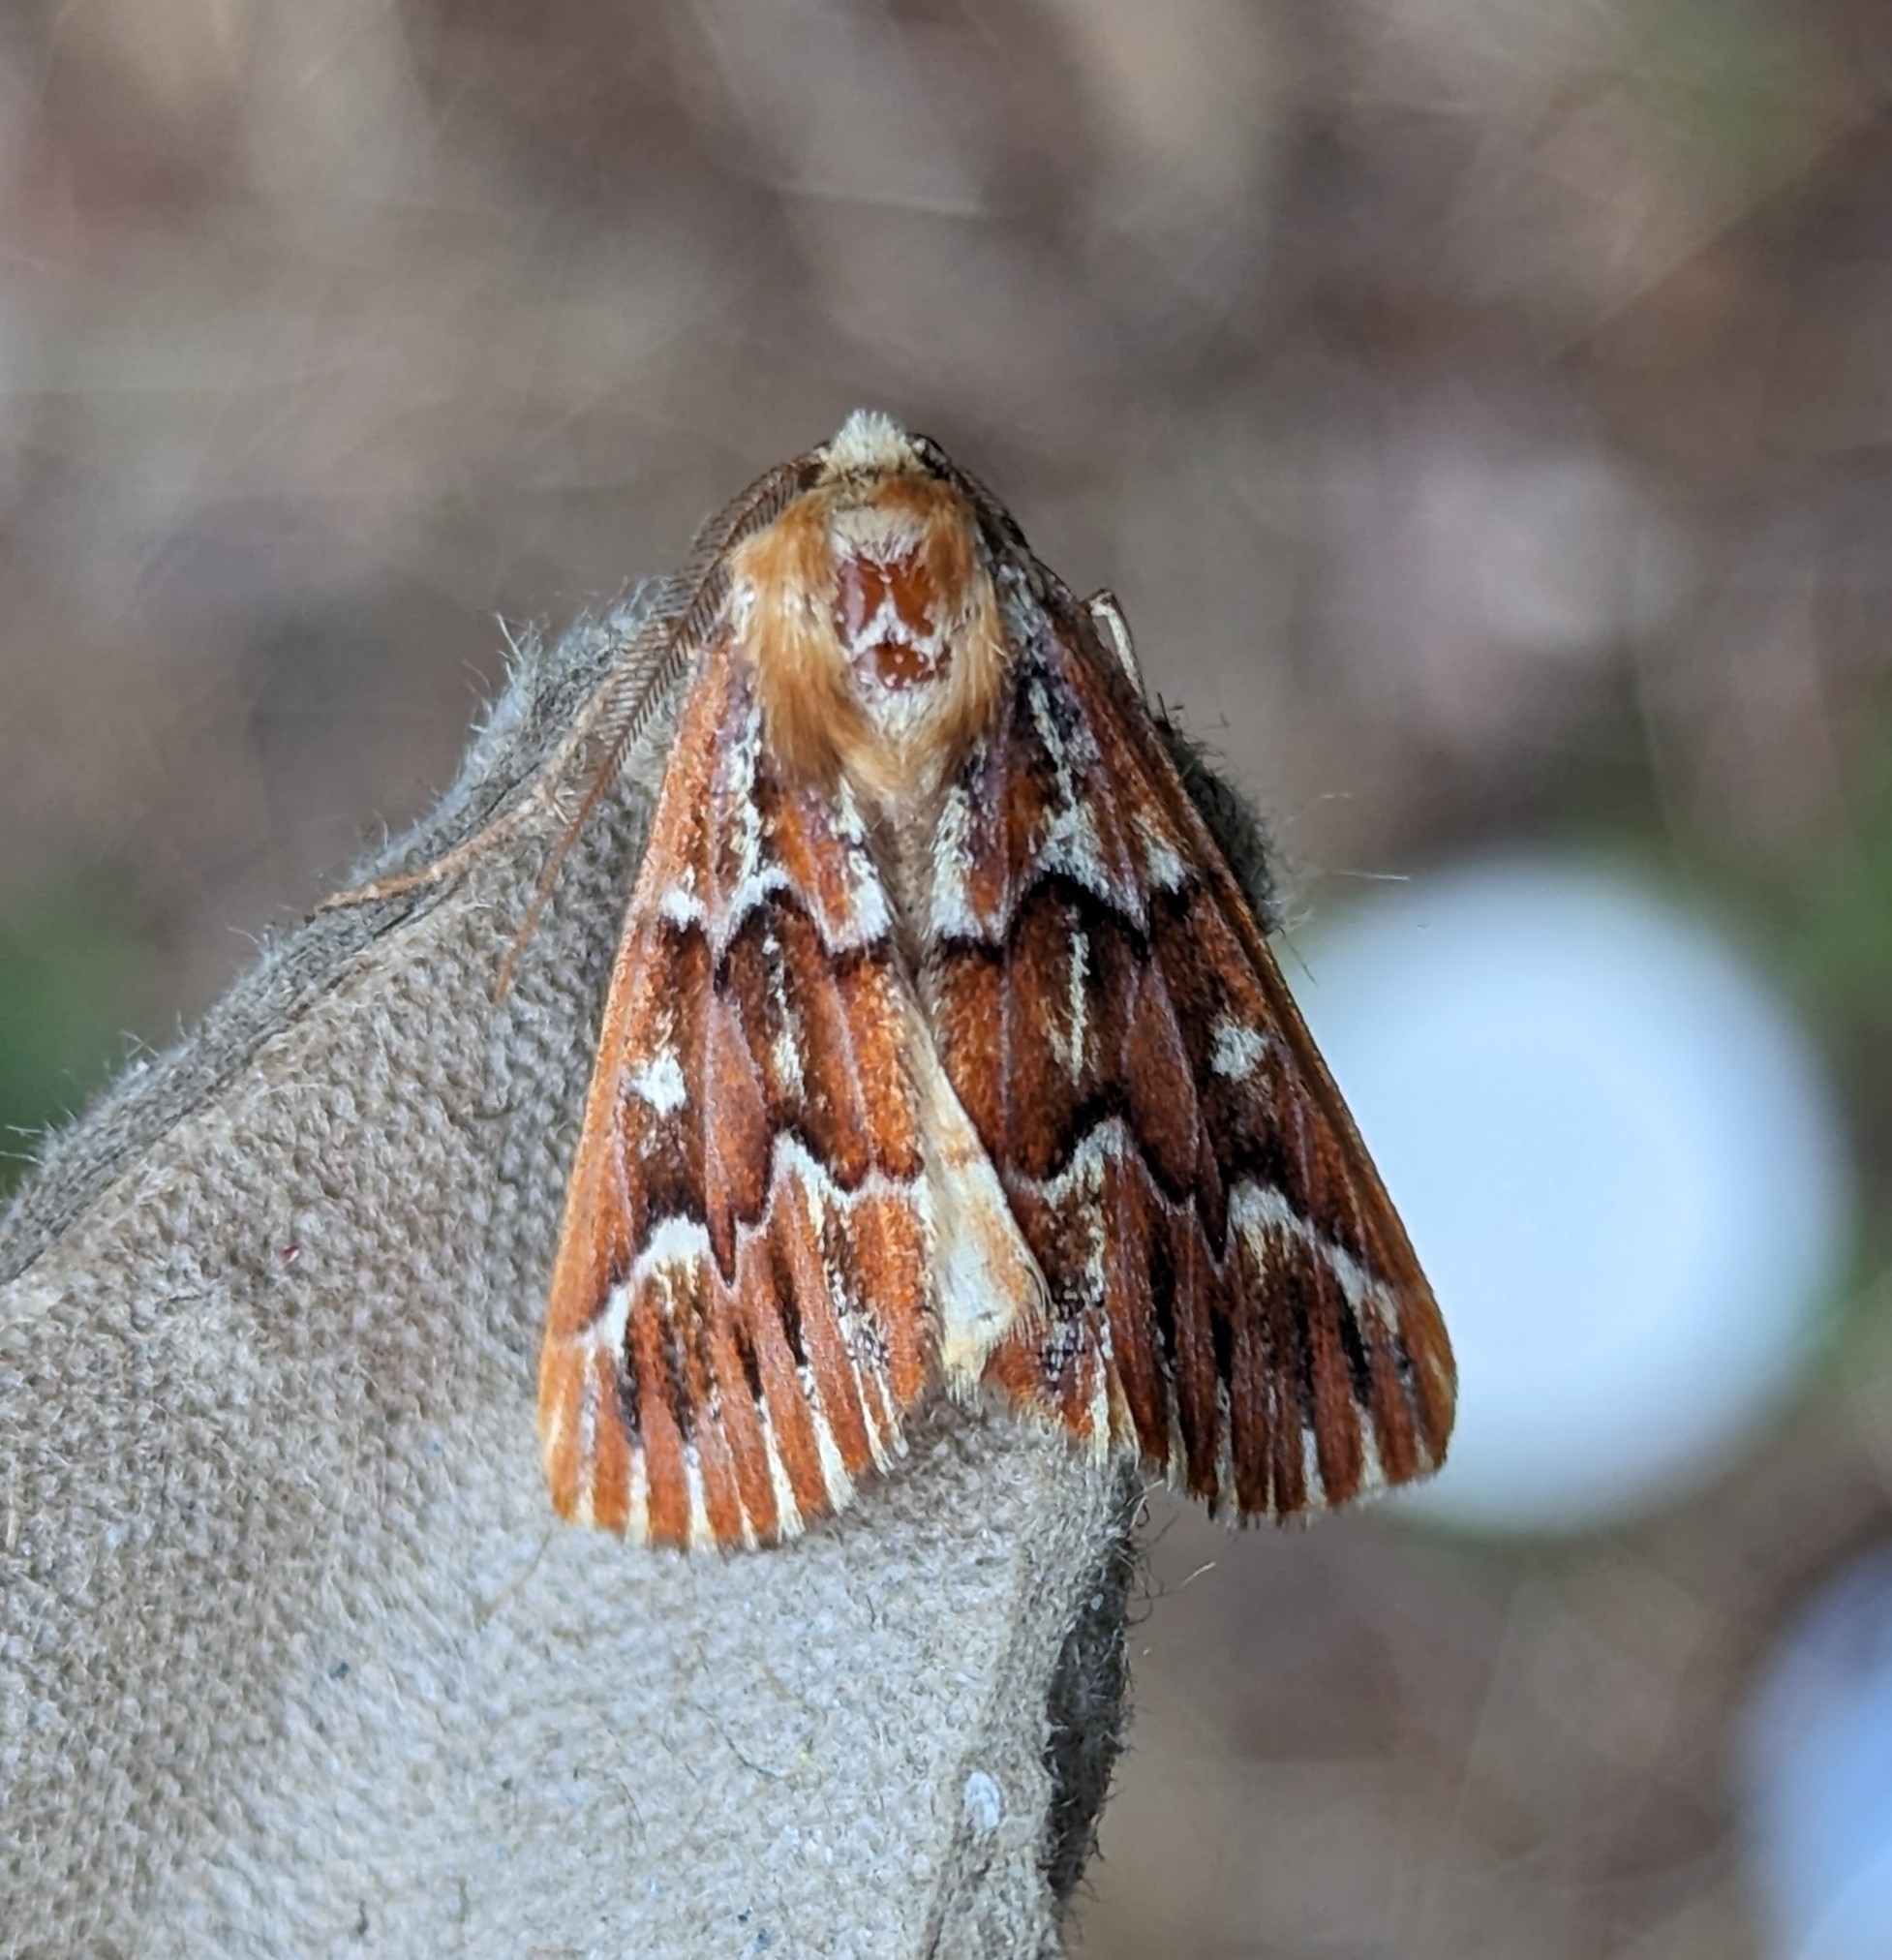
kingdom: Animalia
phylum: Arthropoda
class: Insecta
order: Lepidoptera
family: Geometridae
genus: Caripeta
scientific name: Caripeta aequaliaria
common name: Red girdle moth
